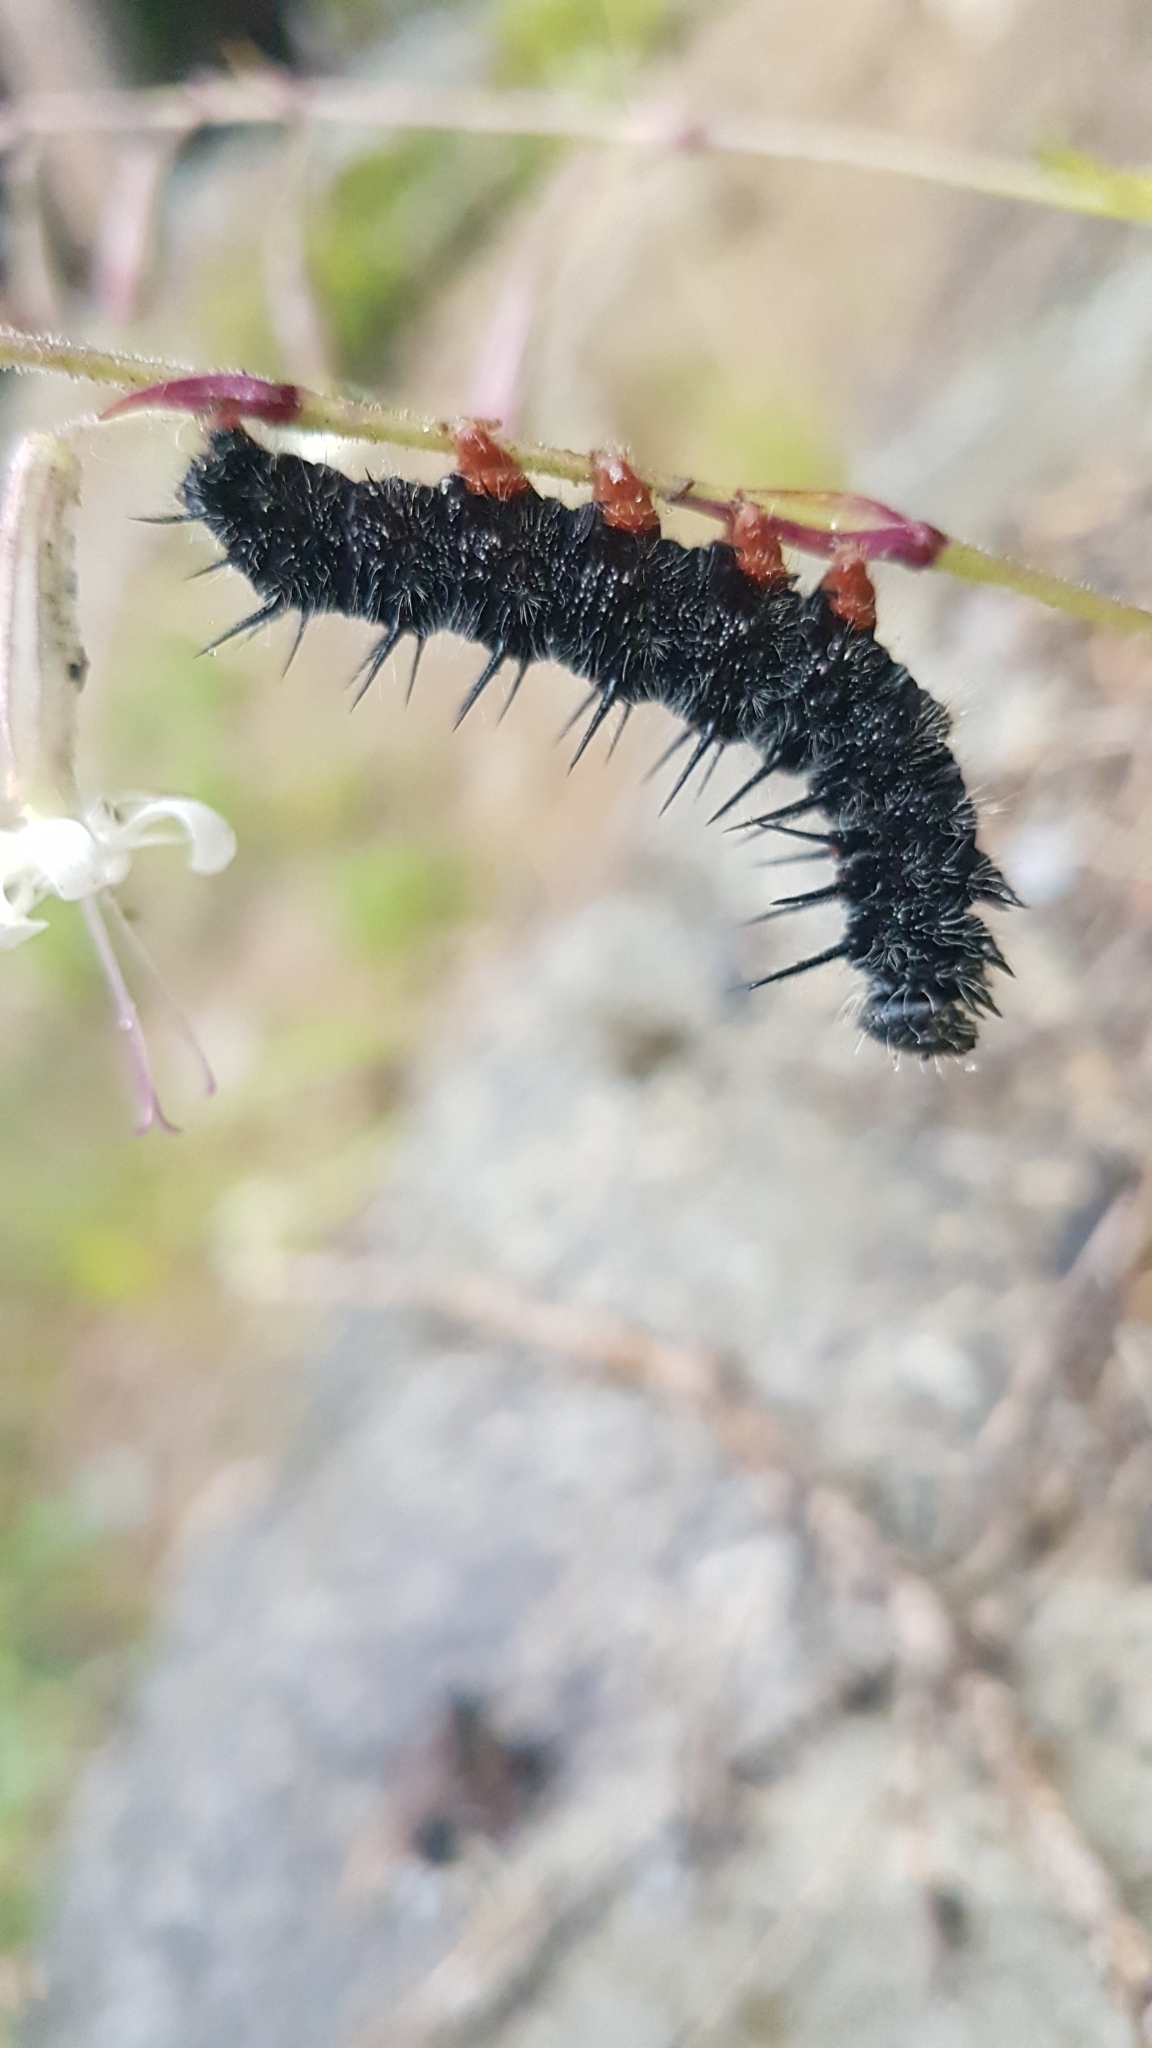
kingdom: Animalia
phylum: Arthropoda
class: Insecta
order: Lepidoptera
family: Nymphalidae
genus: Nymphalis
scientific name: Nymphalis antiopa
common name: Camberwell beauty
